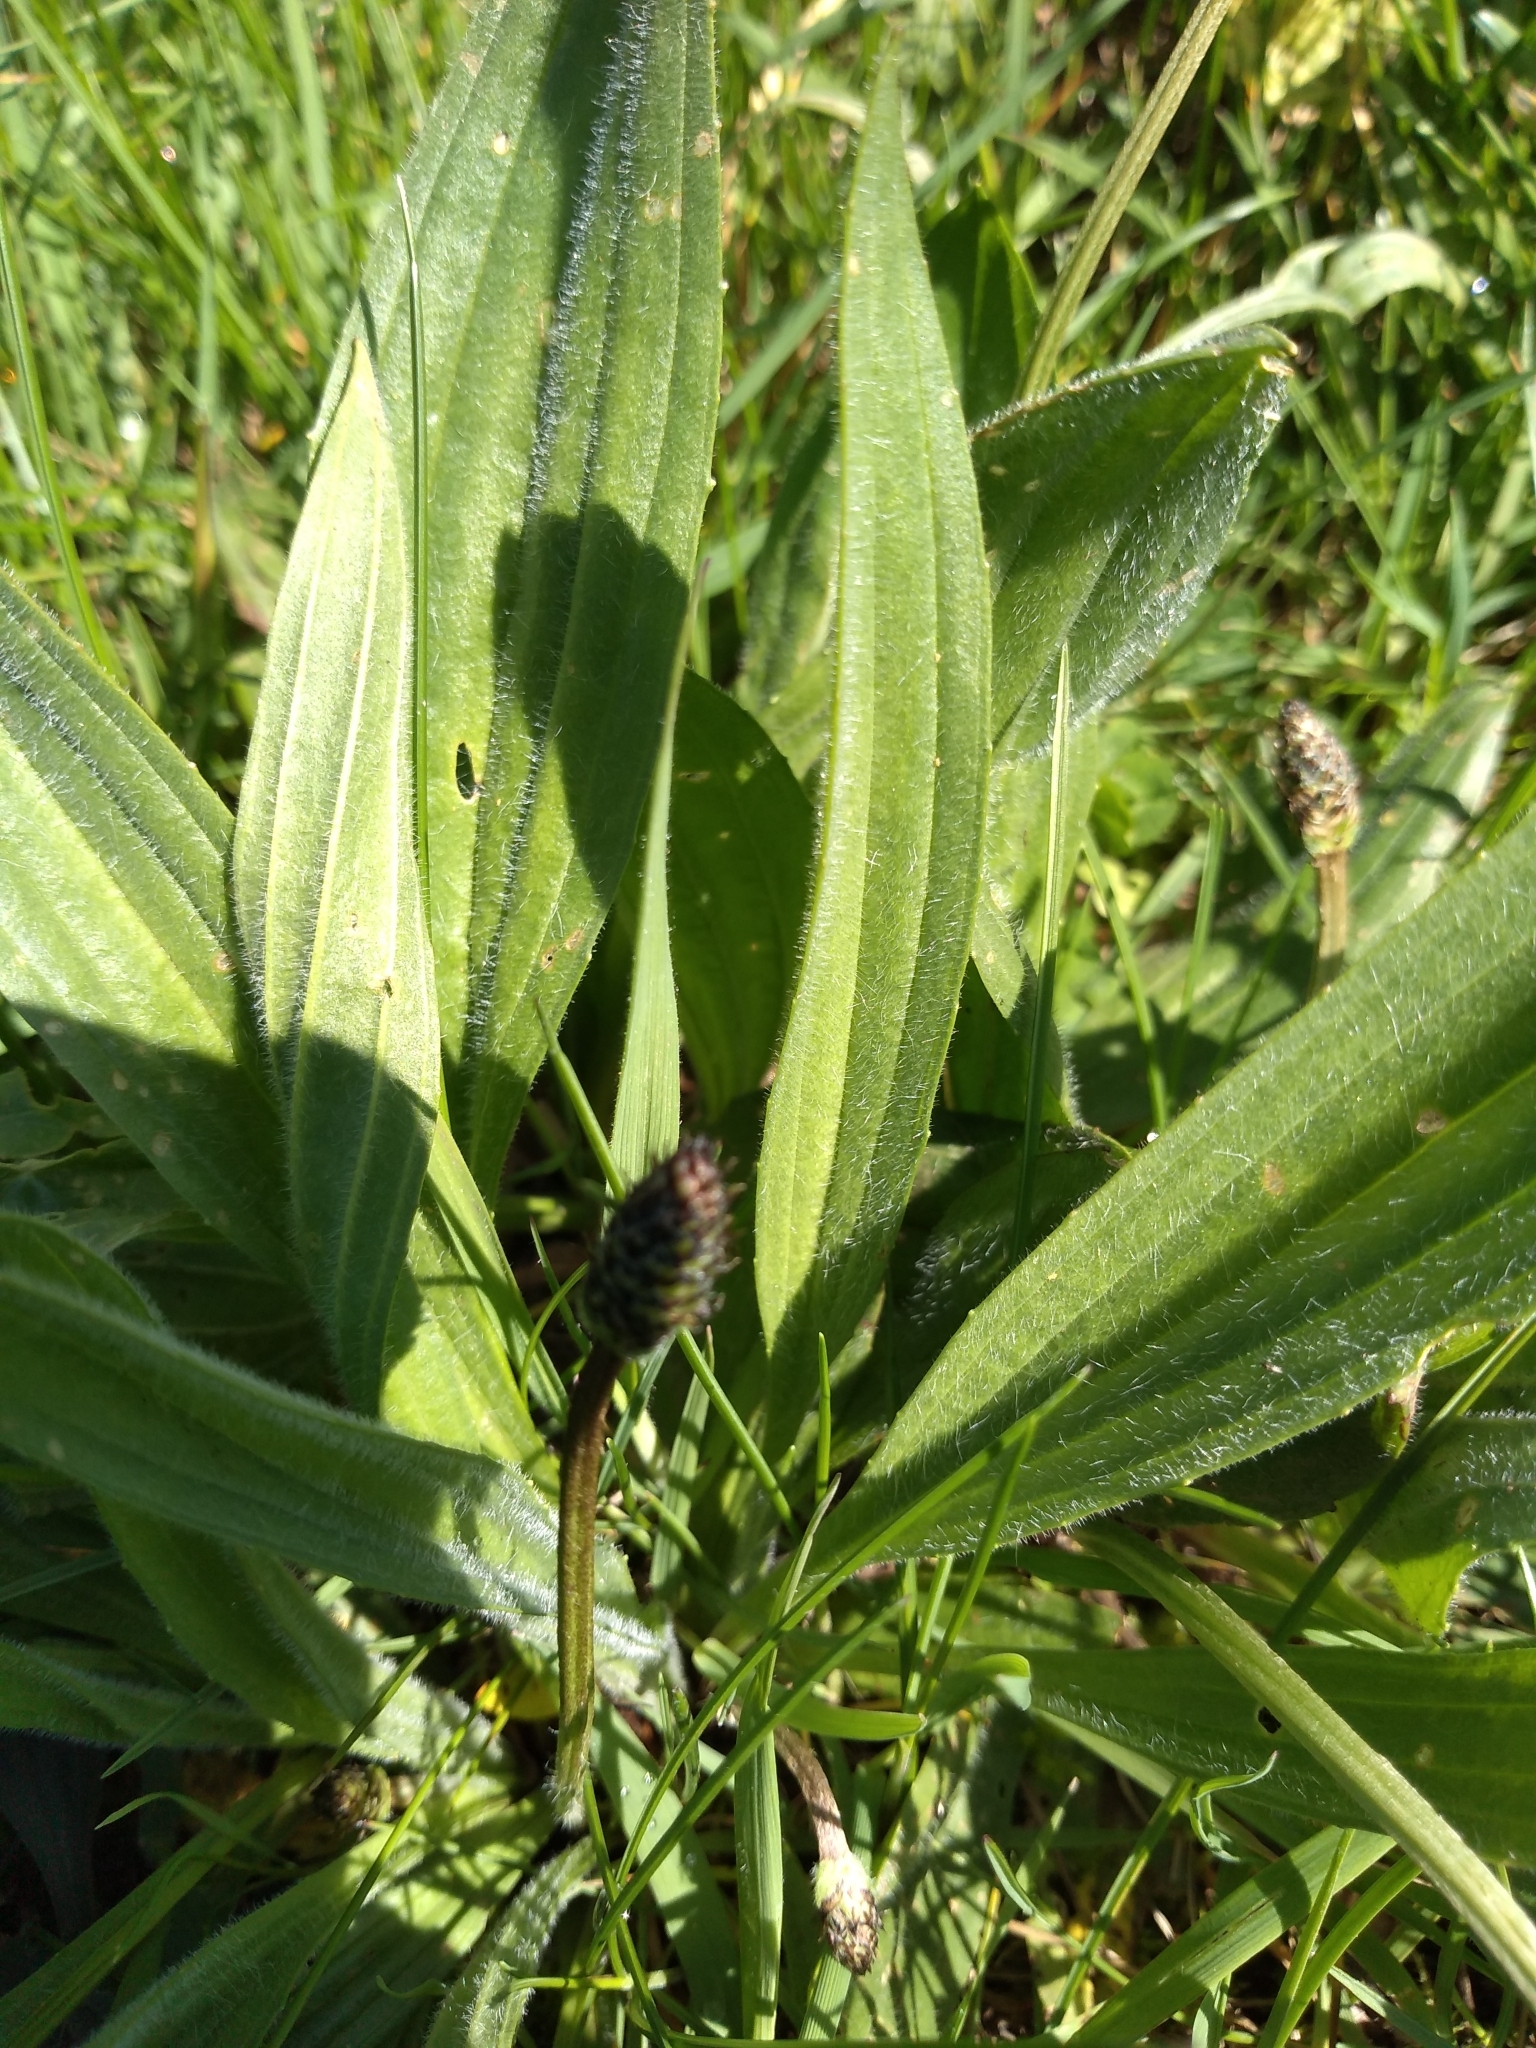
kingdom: Plantae
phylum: Tracheophyta
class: Magnoliopsida
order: Lamiales
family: Plantaginaceae
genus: Plantago
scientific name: Plantago lanceolata
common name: Ribwort plantain
